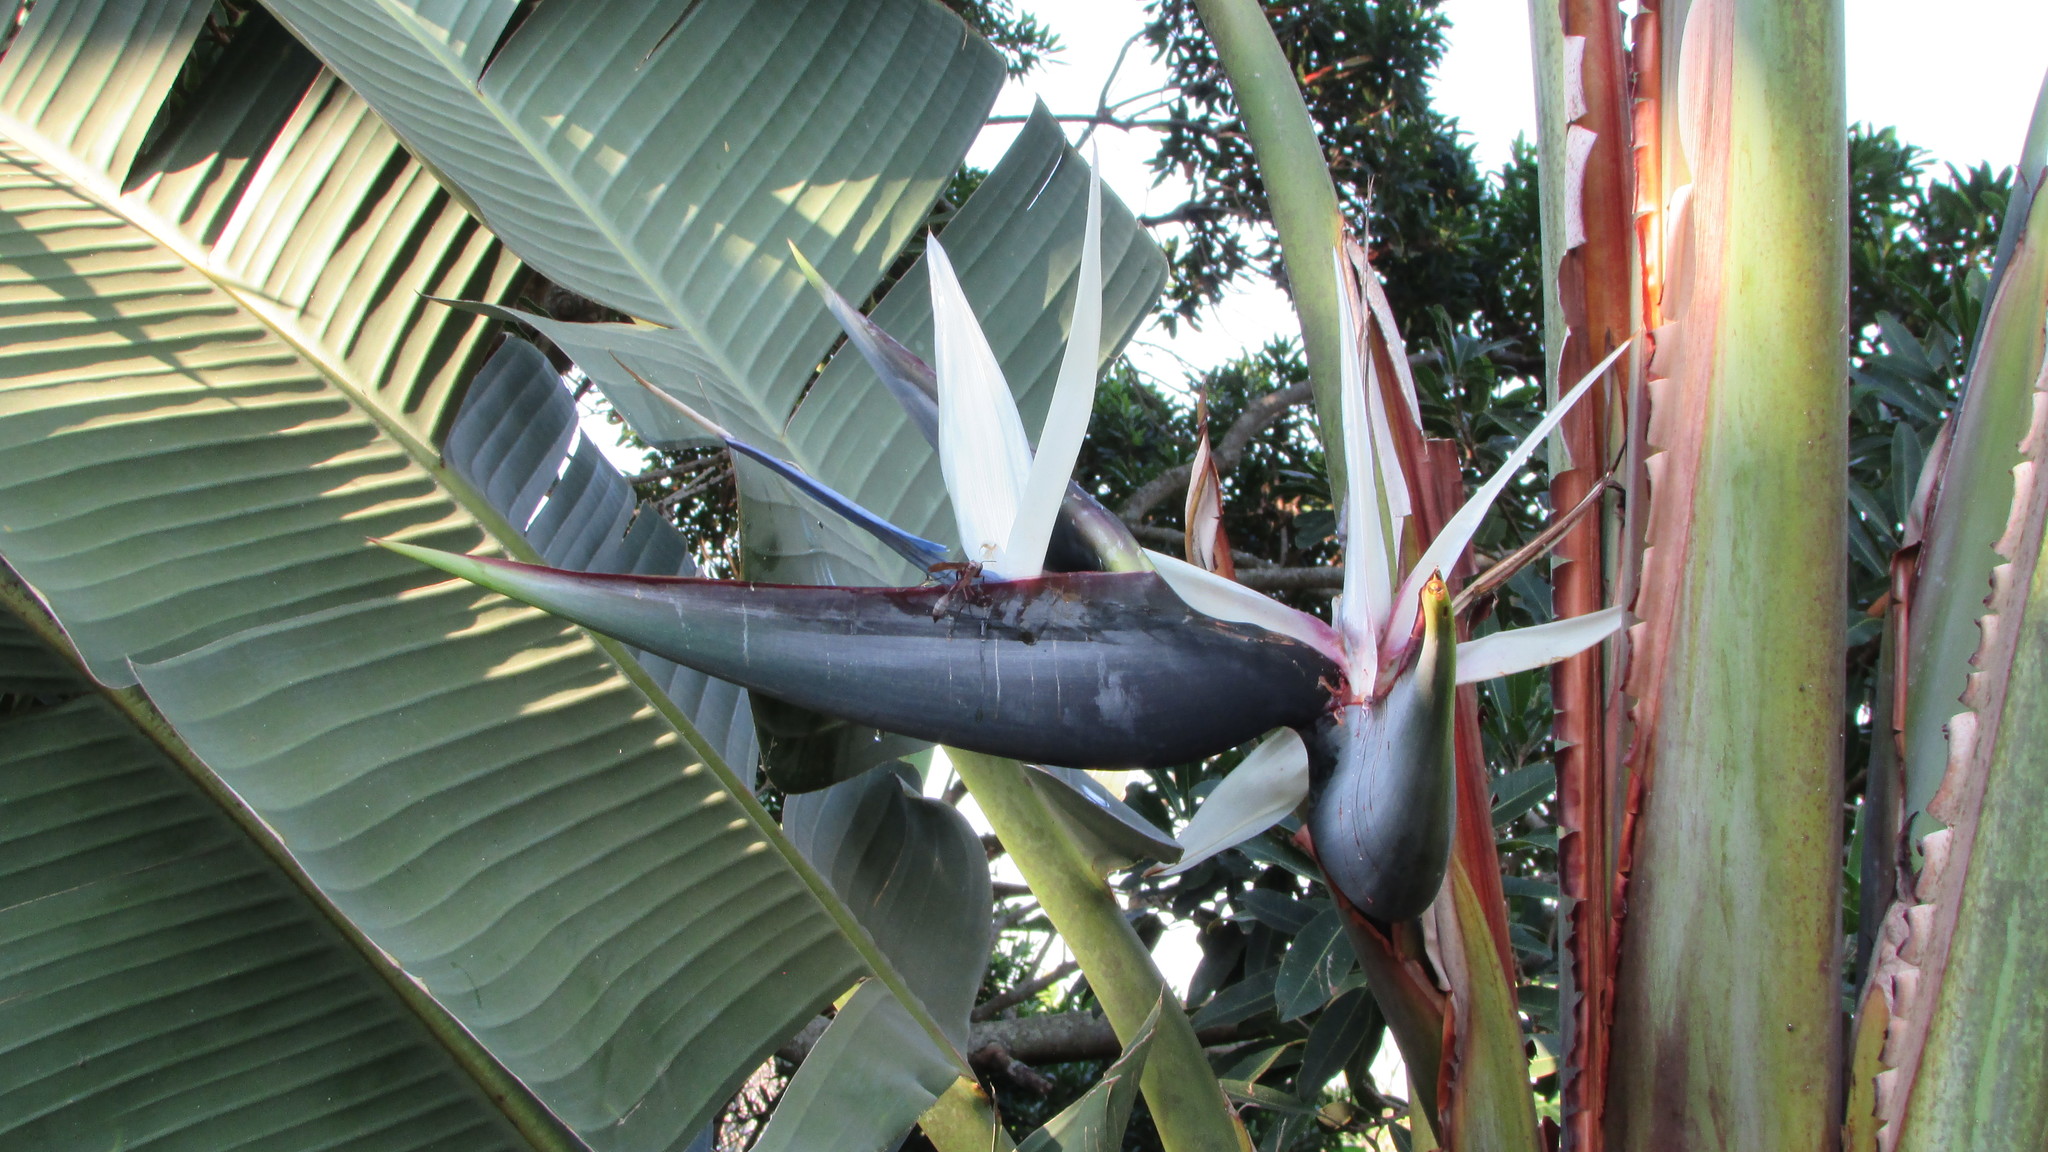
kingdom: Plantae
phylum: Tracheophyta
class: Liliopsida
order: Zingiberales
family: Strelitziaceae
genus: Strelitzia
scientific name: Strelitzia nicolai
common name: Bird-of-paradise tree
